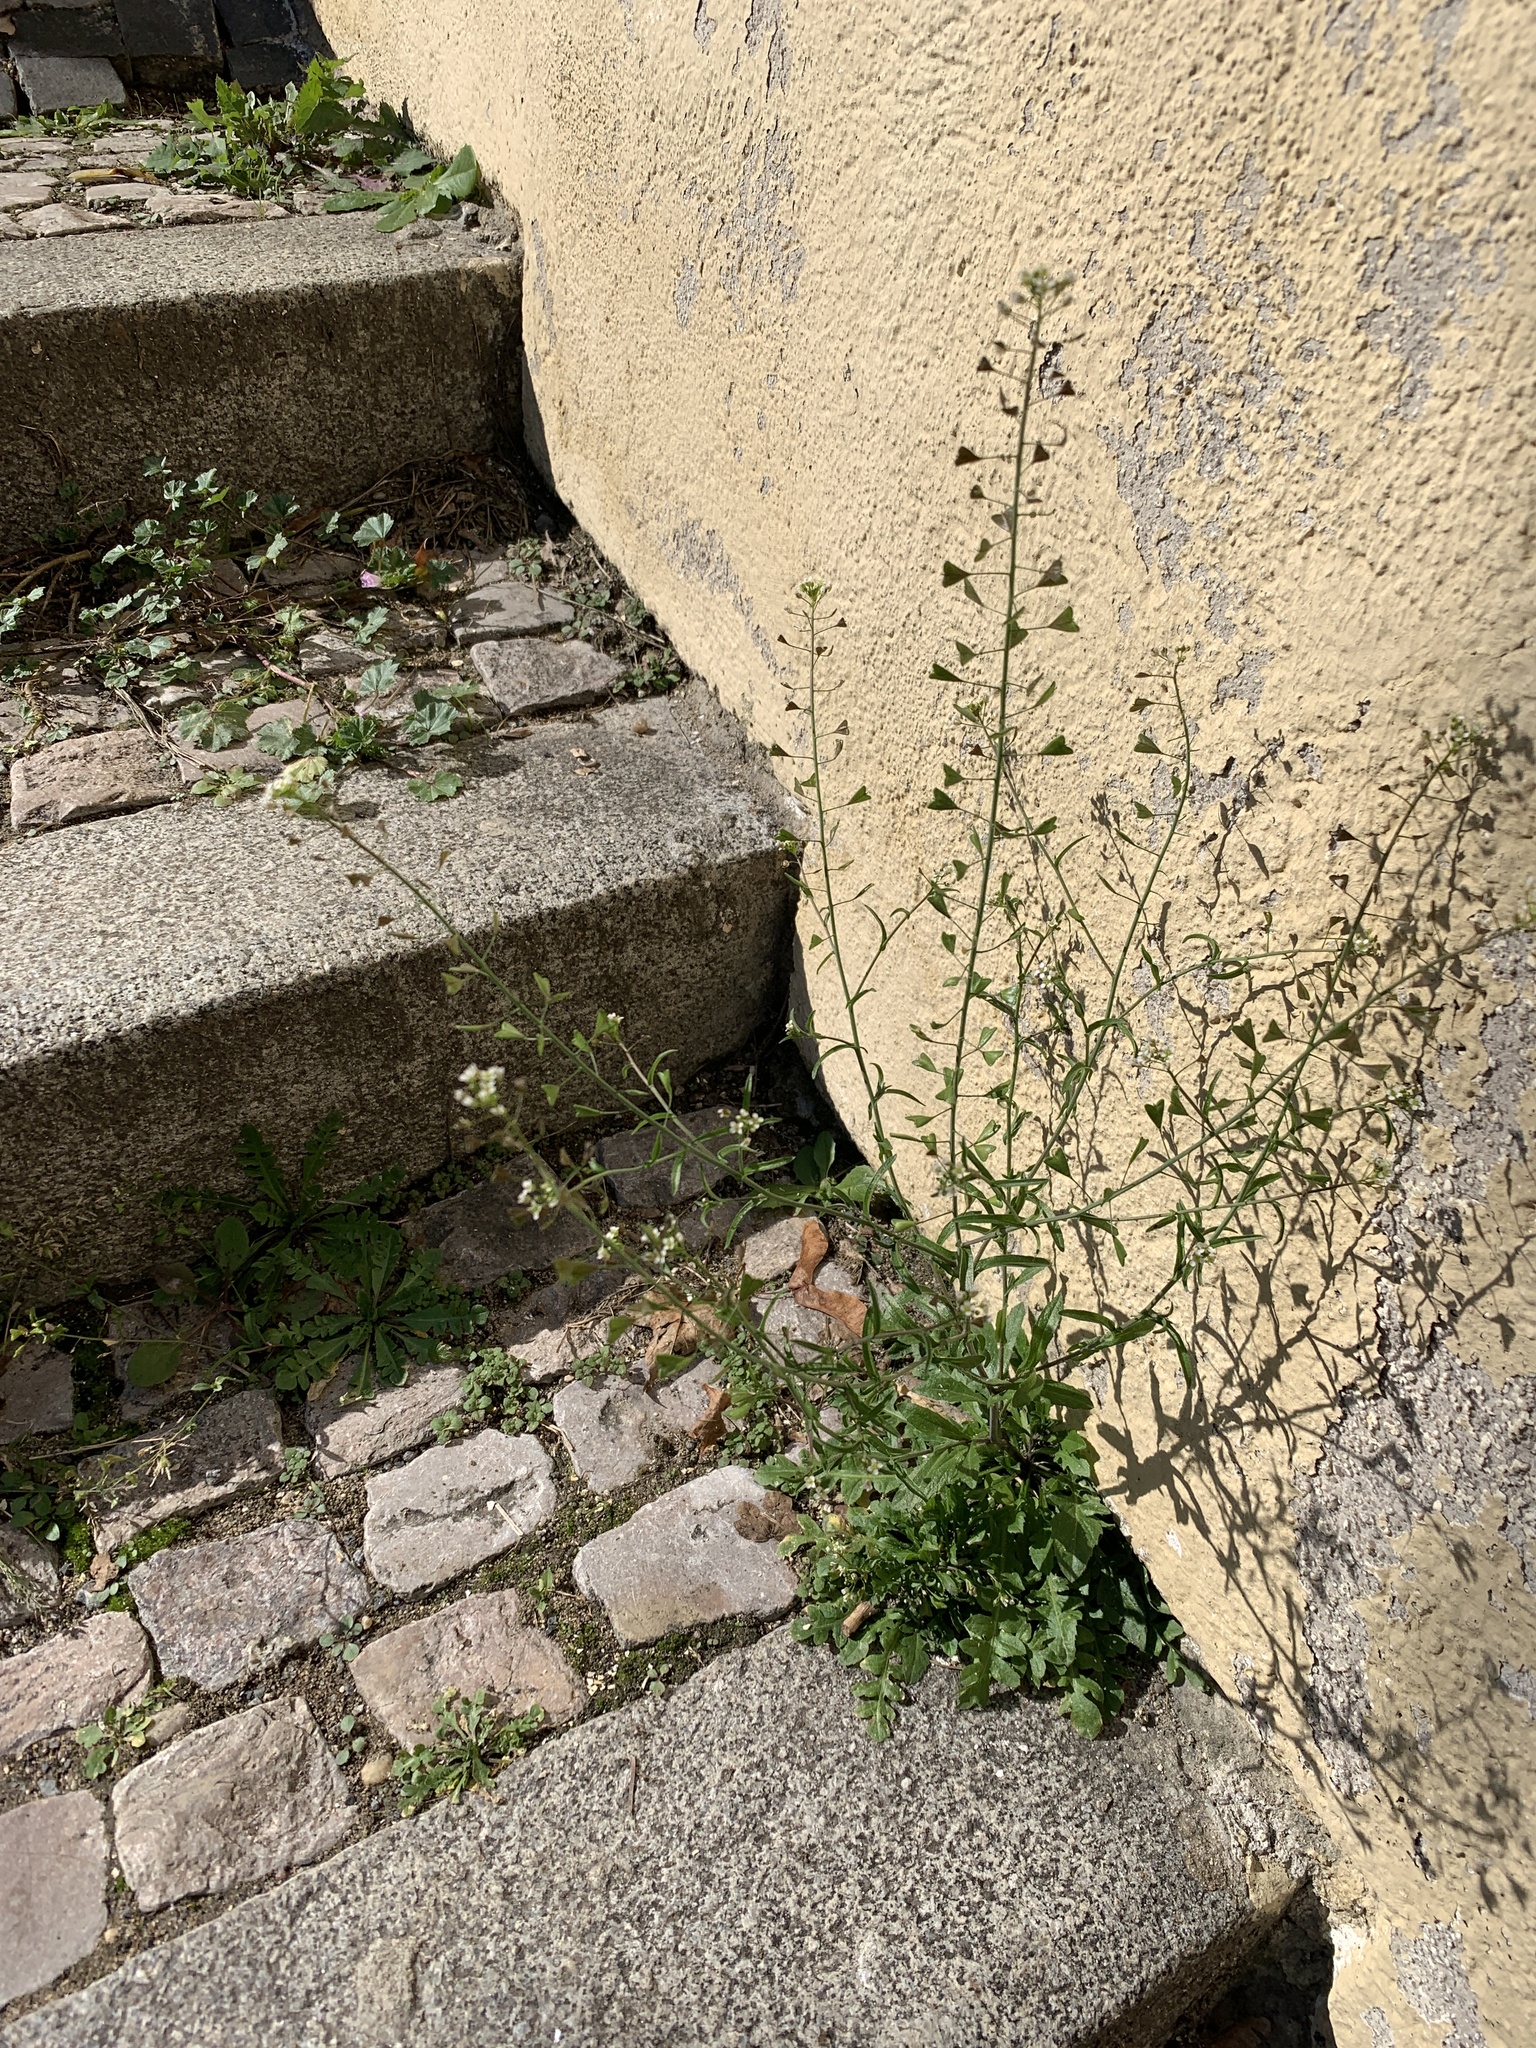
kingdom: Plantae
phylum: Tracheophyta
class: Magnoliopsida
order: Brassicales
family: Brassicaceae
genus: Capsella
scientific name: Capsella bursa-pastoris
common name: Shepherd's purse
